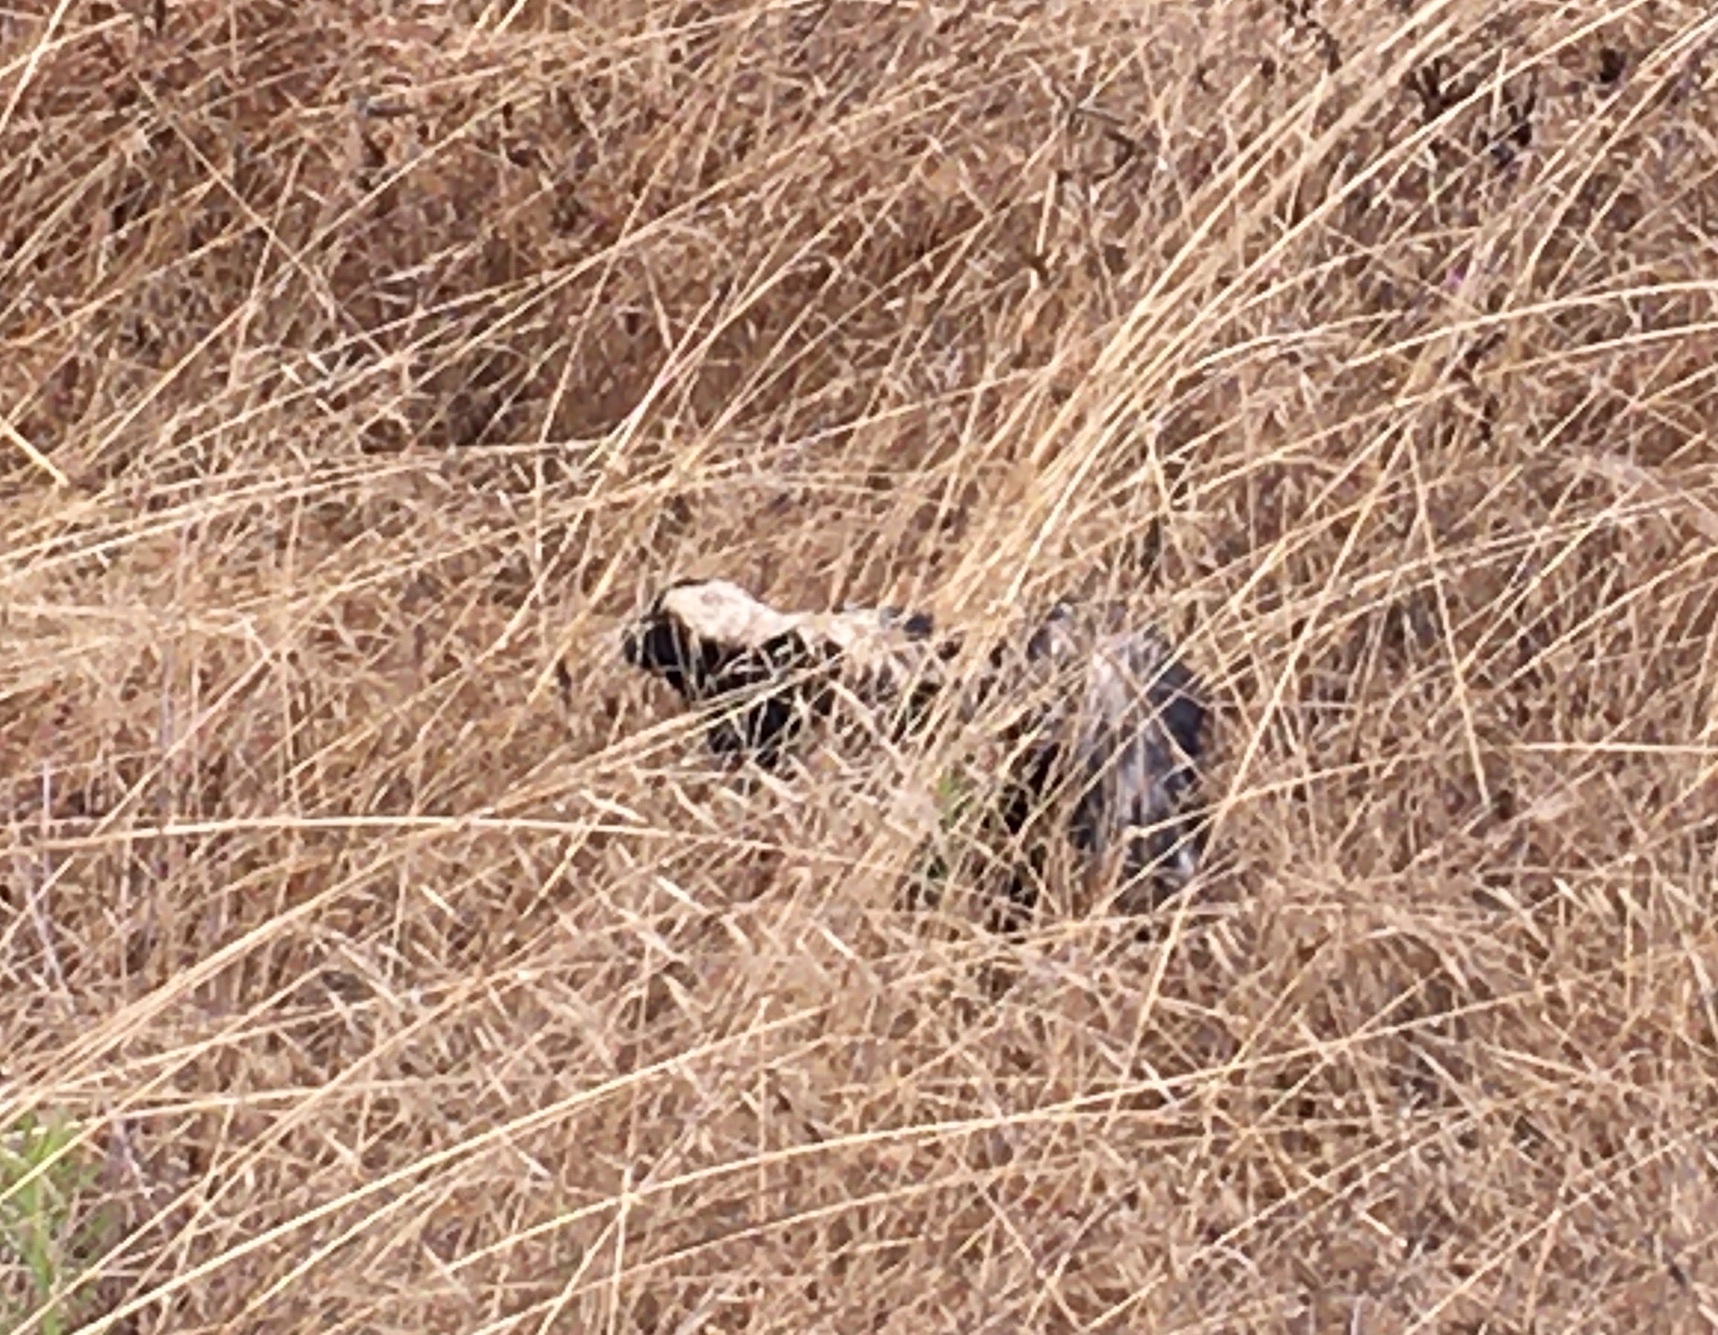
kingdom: Animalia
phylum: Chordata
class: Mammalia
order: Carnivora
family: Mephitidae
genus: Mephitis
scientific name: Mephitis mephitis
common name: Striped skunk
